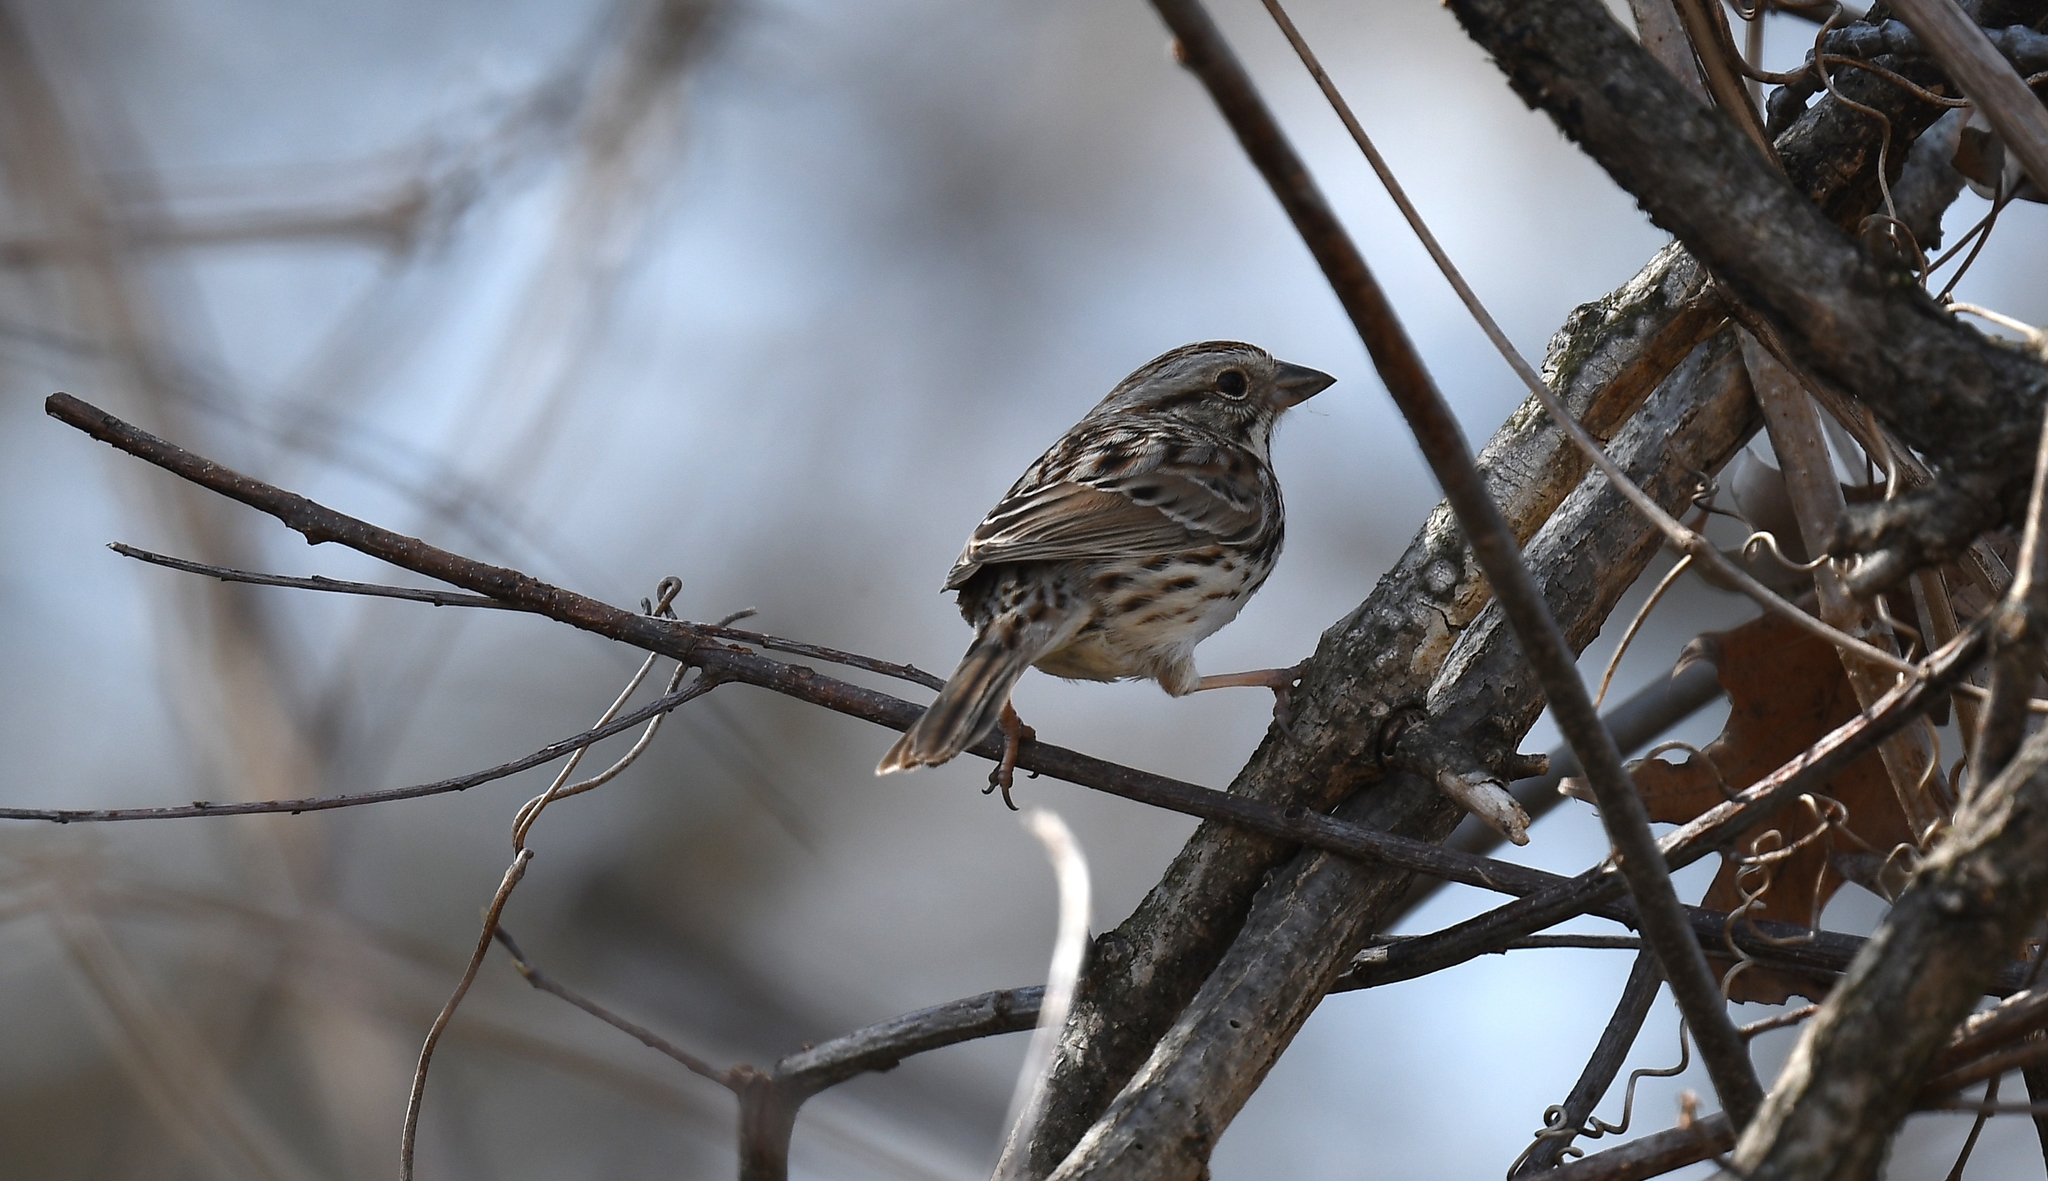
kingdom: Animalia
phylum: Chordata
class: Aves
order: Passeriformes
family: Passerellidae
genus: Melospiza
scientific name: Melospiza melodia
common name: Song sparrow
